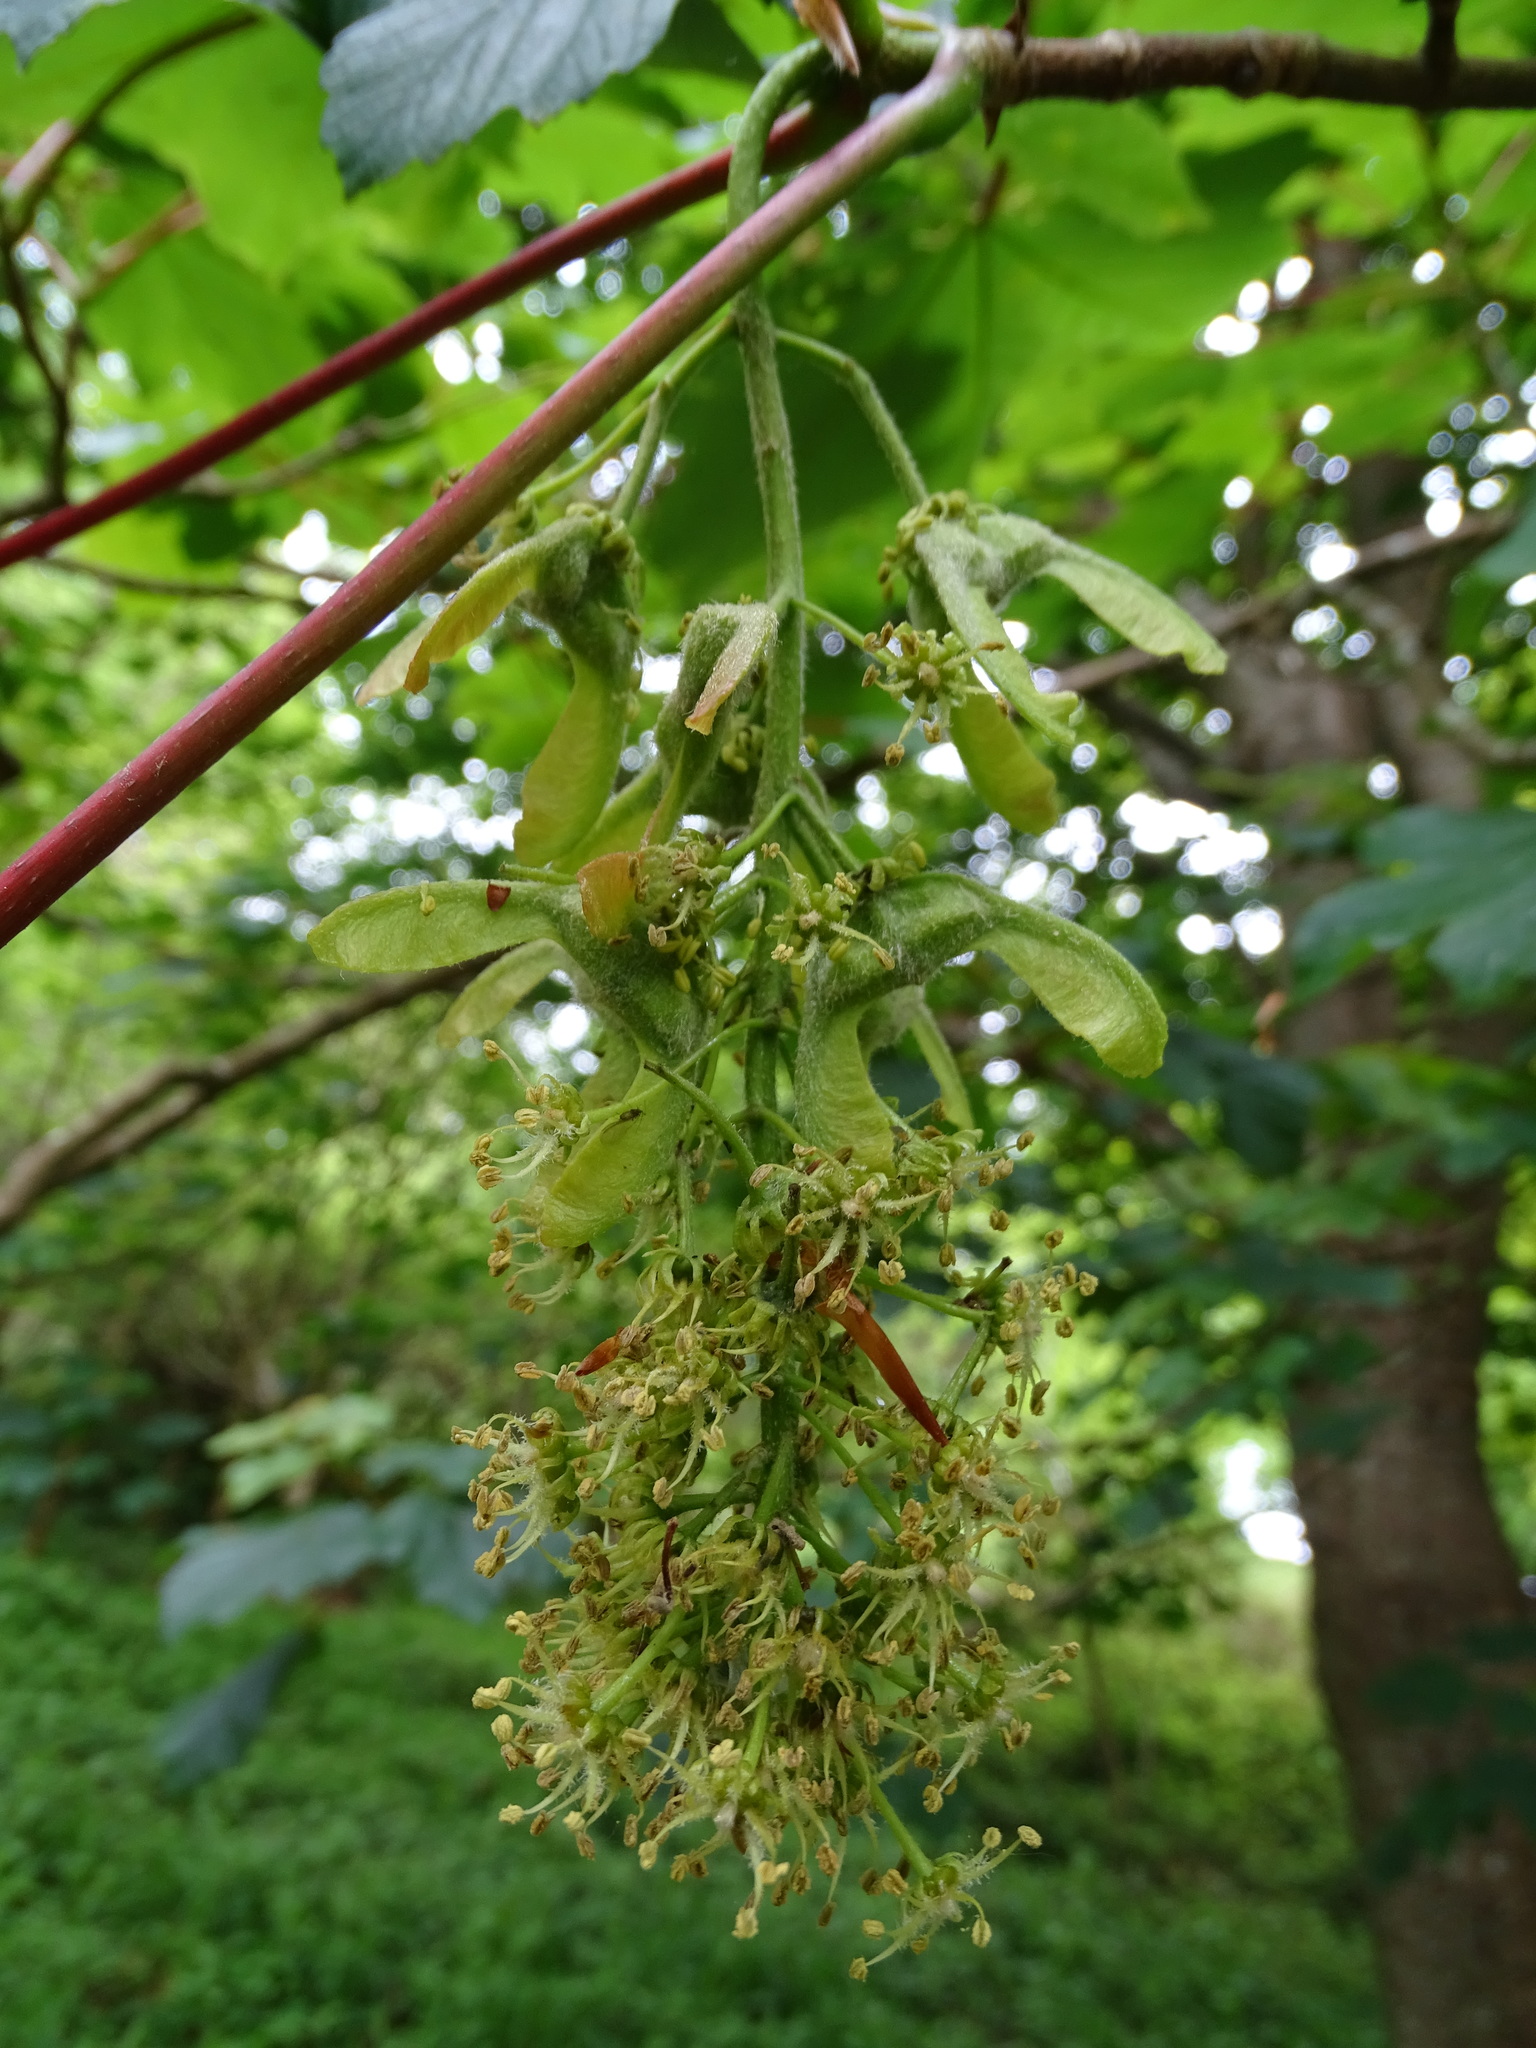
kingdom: Plantae
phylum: Tracheophyta
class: Magnoliopsida
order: Sapindales
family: Sapindaceae
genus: Acer
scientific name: Acer pseudoplatanus
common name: Sycamore
